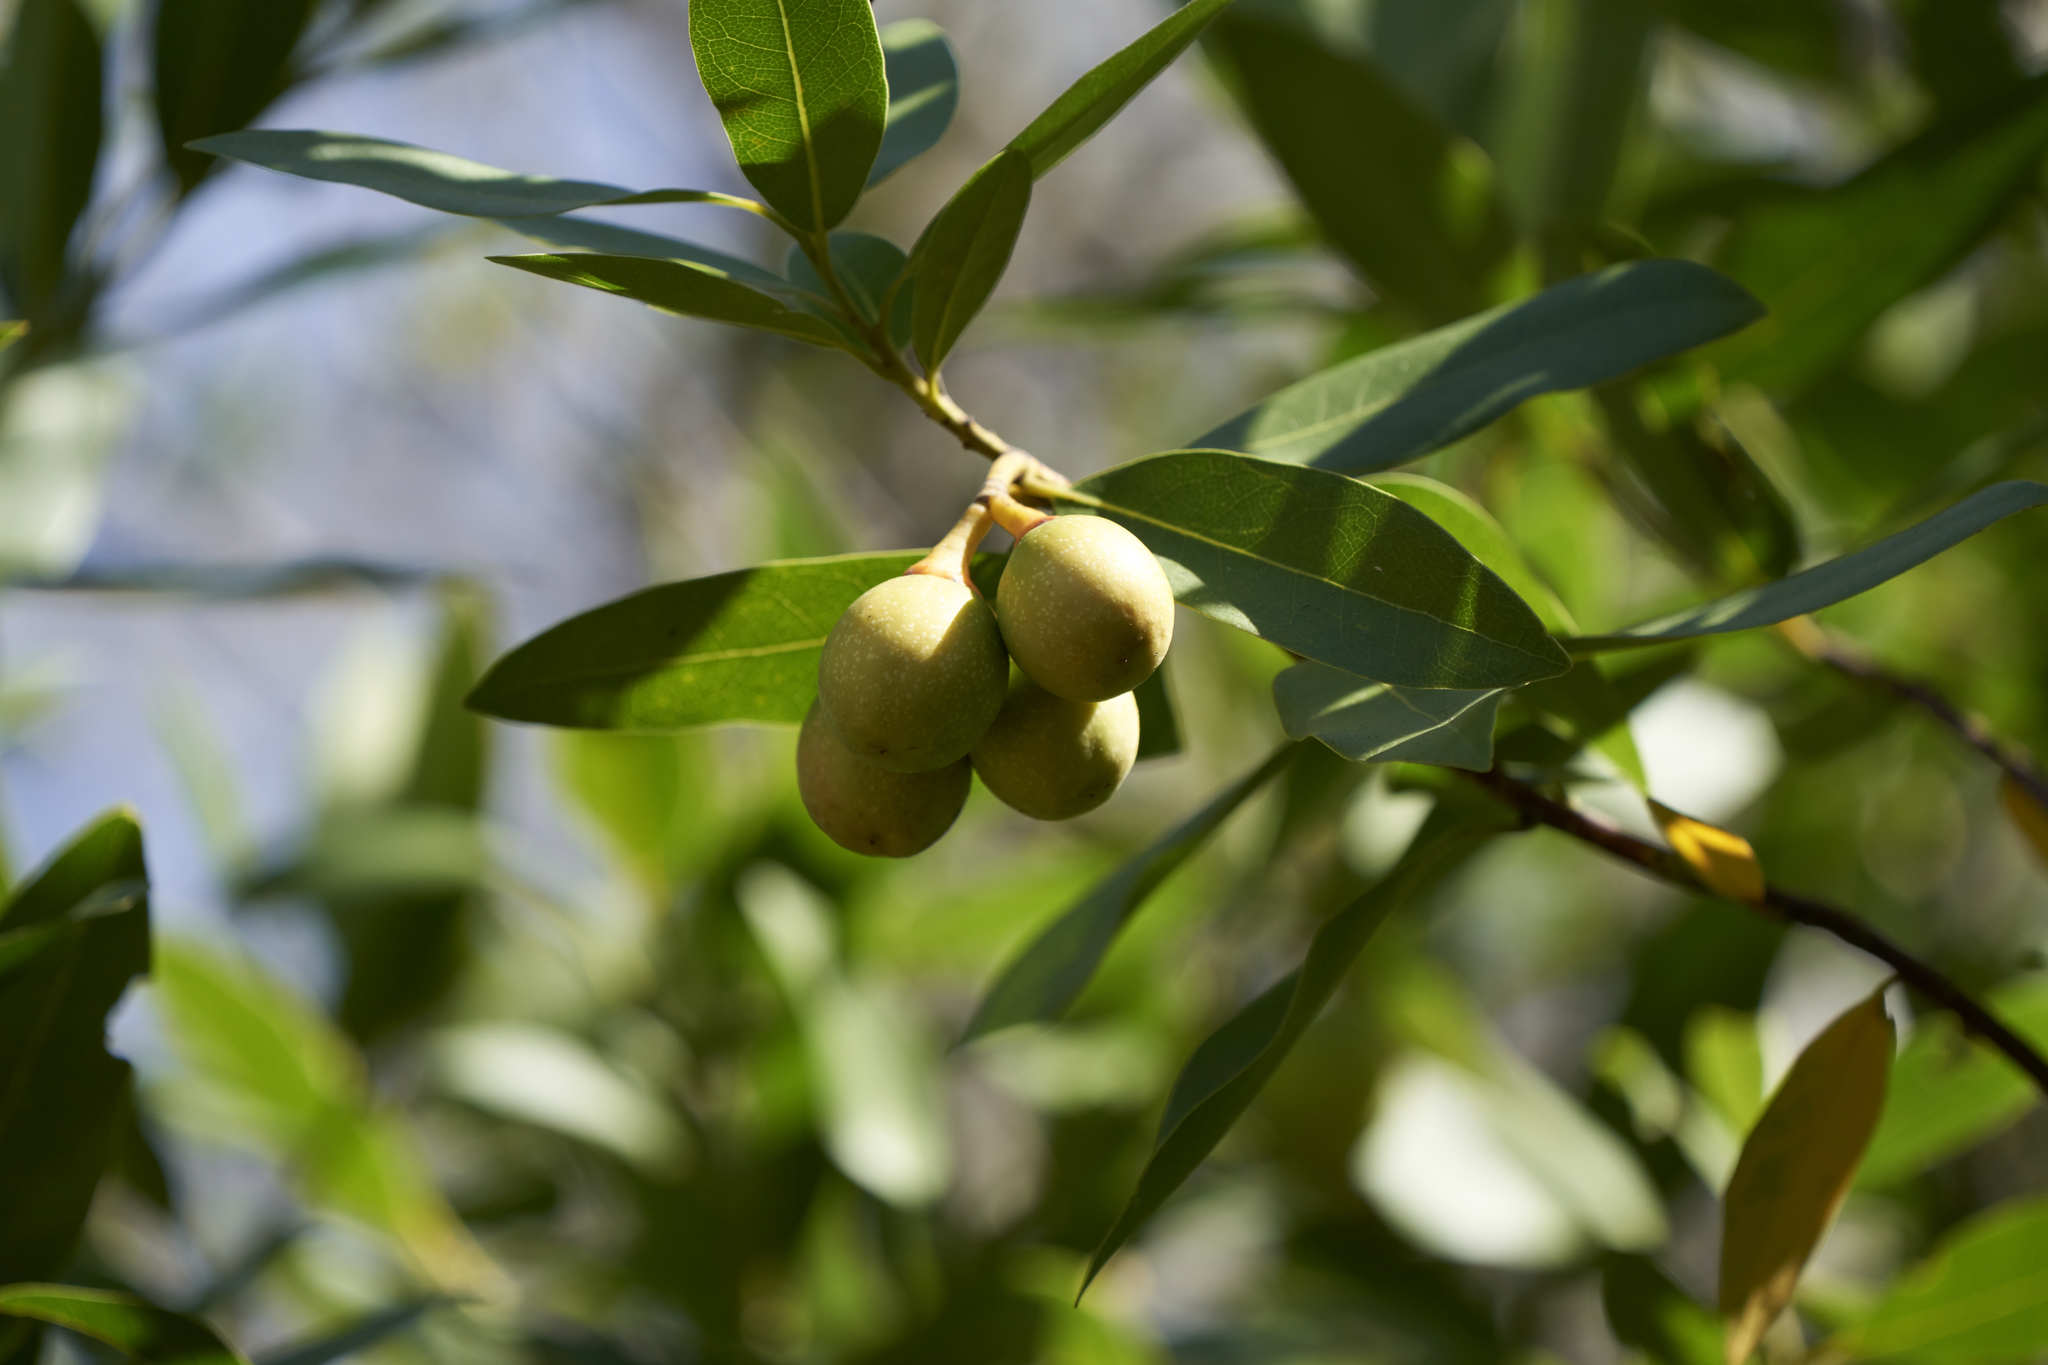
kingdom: Plantae
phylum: Tracheophyta
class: Magnoliopsida
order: Laurales
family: Lauraceae
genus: Umbellularia
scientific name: Umbellularia californica
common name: California bay
